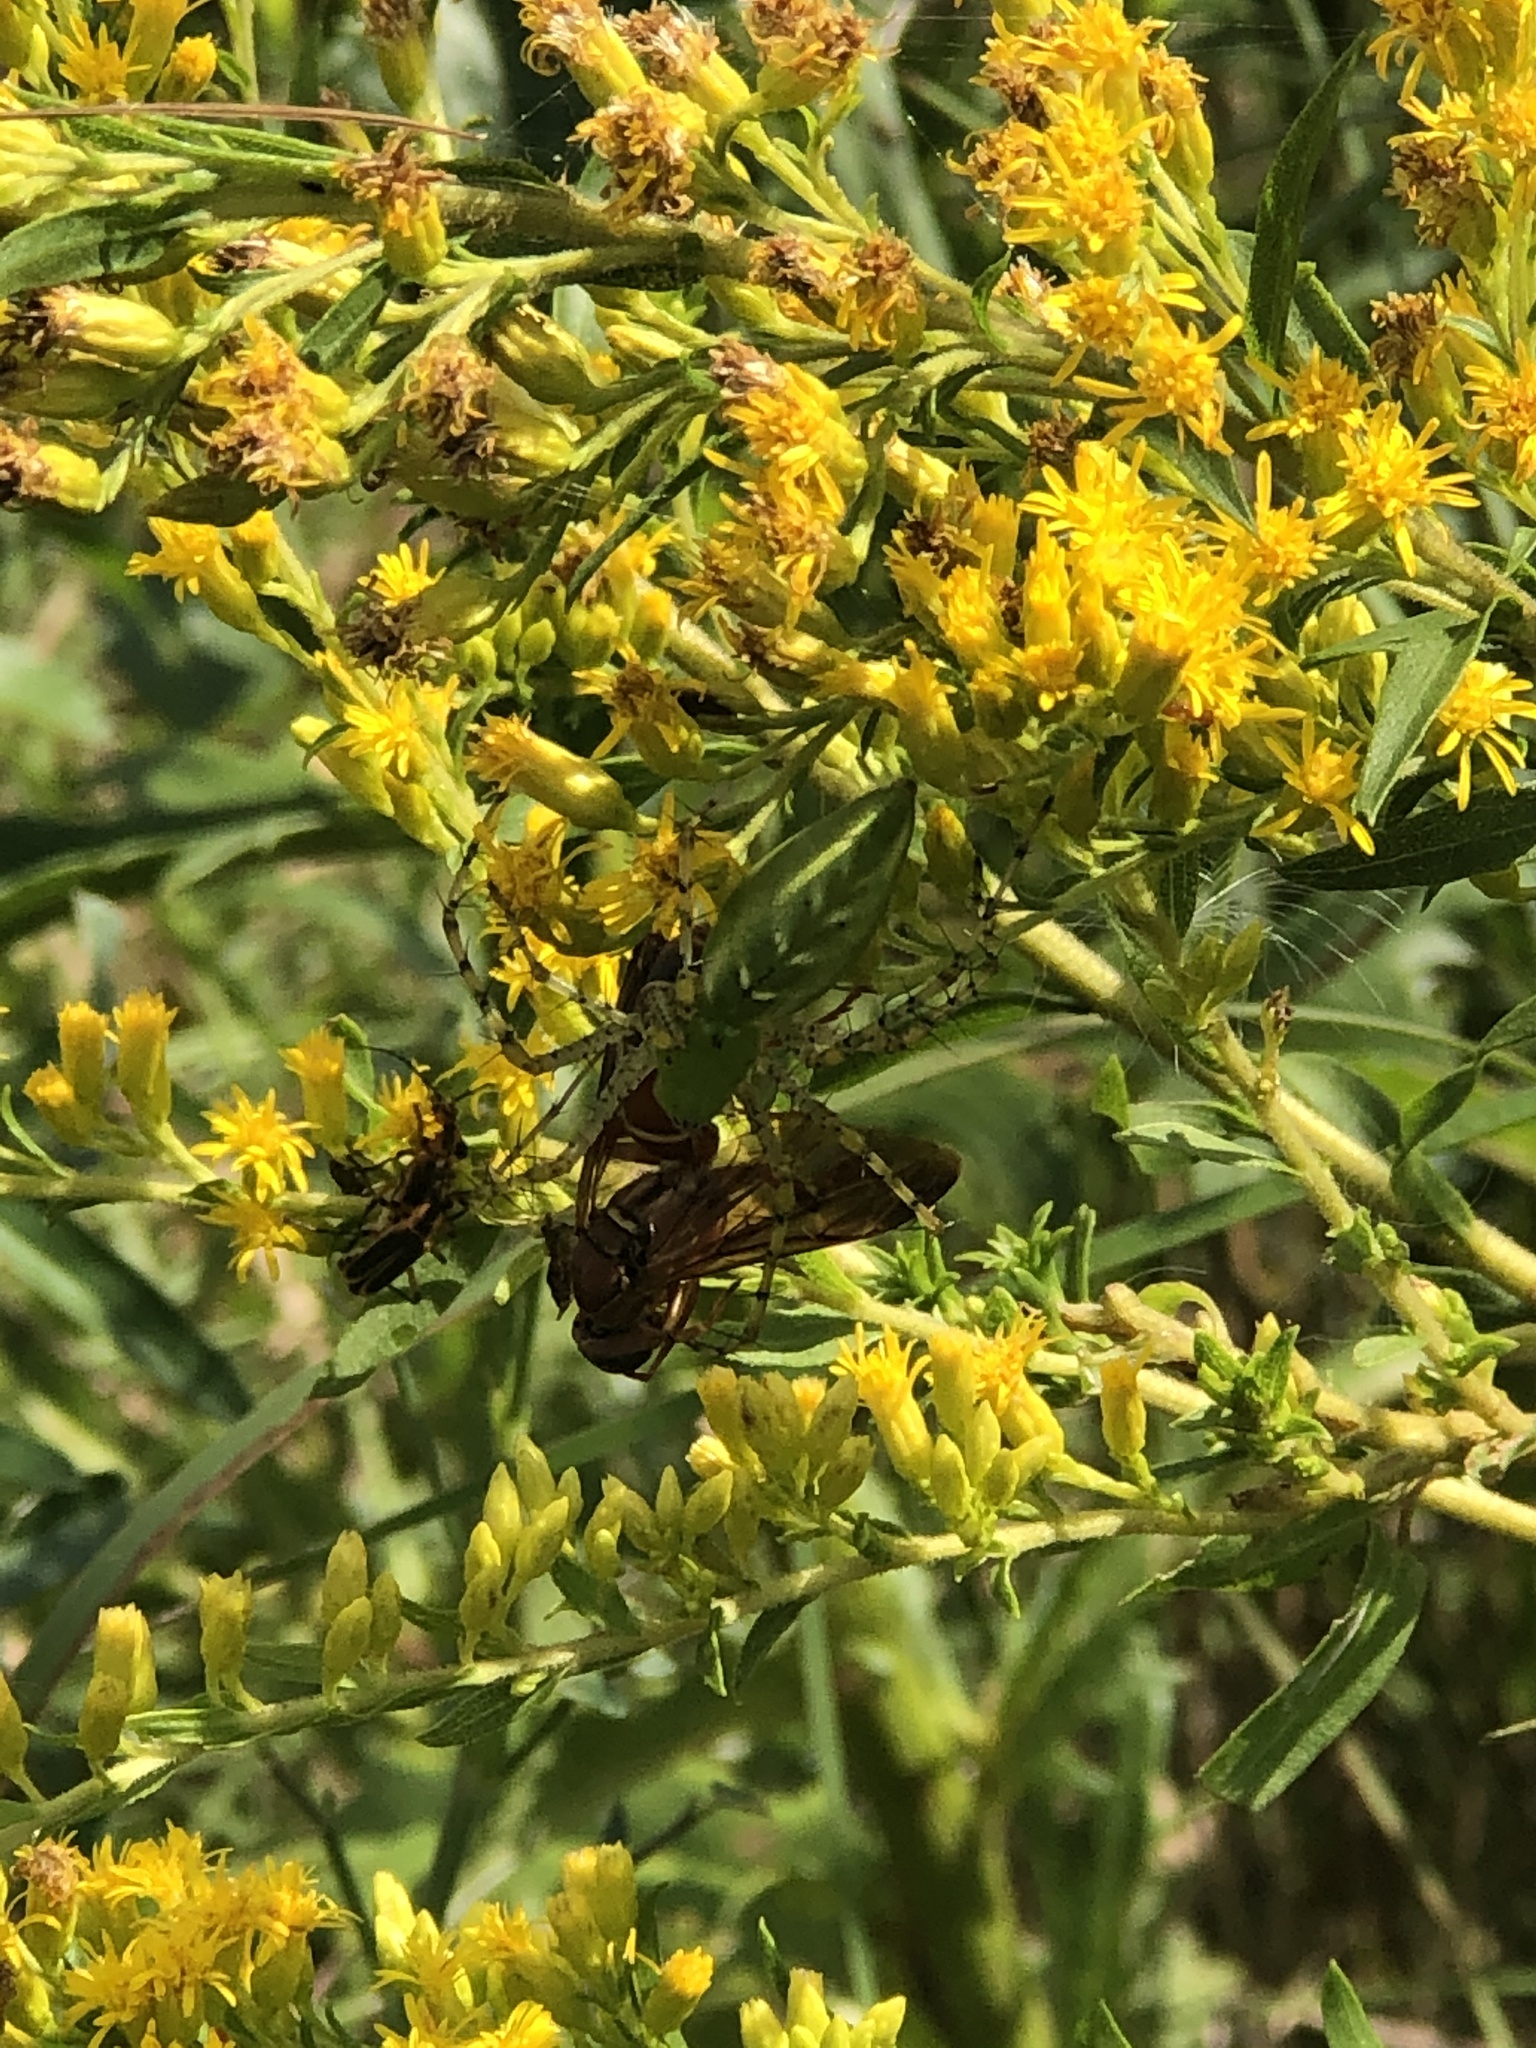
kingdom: Animalia
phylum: Arthropoda
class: Arachnida
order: Araneae
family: Oxyopidae
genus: Peucetia
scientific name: Peucetia viridans
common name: Lynx spiders
